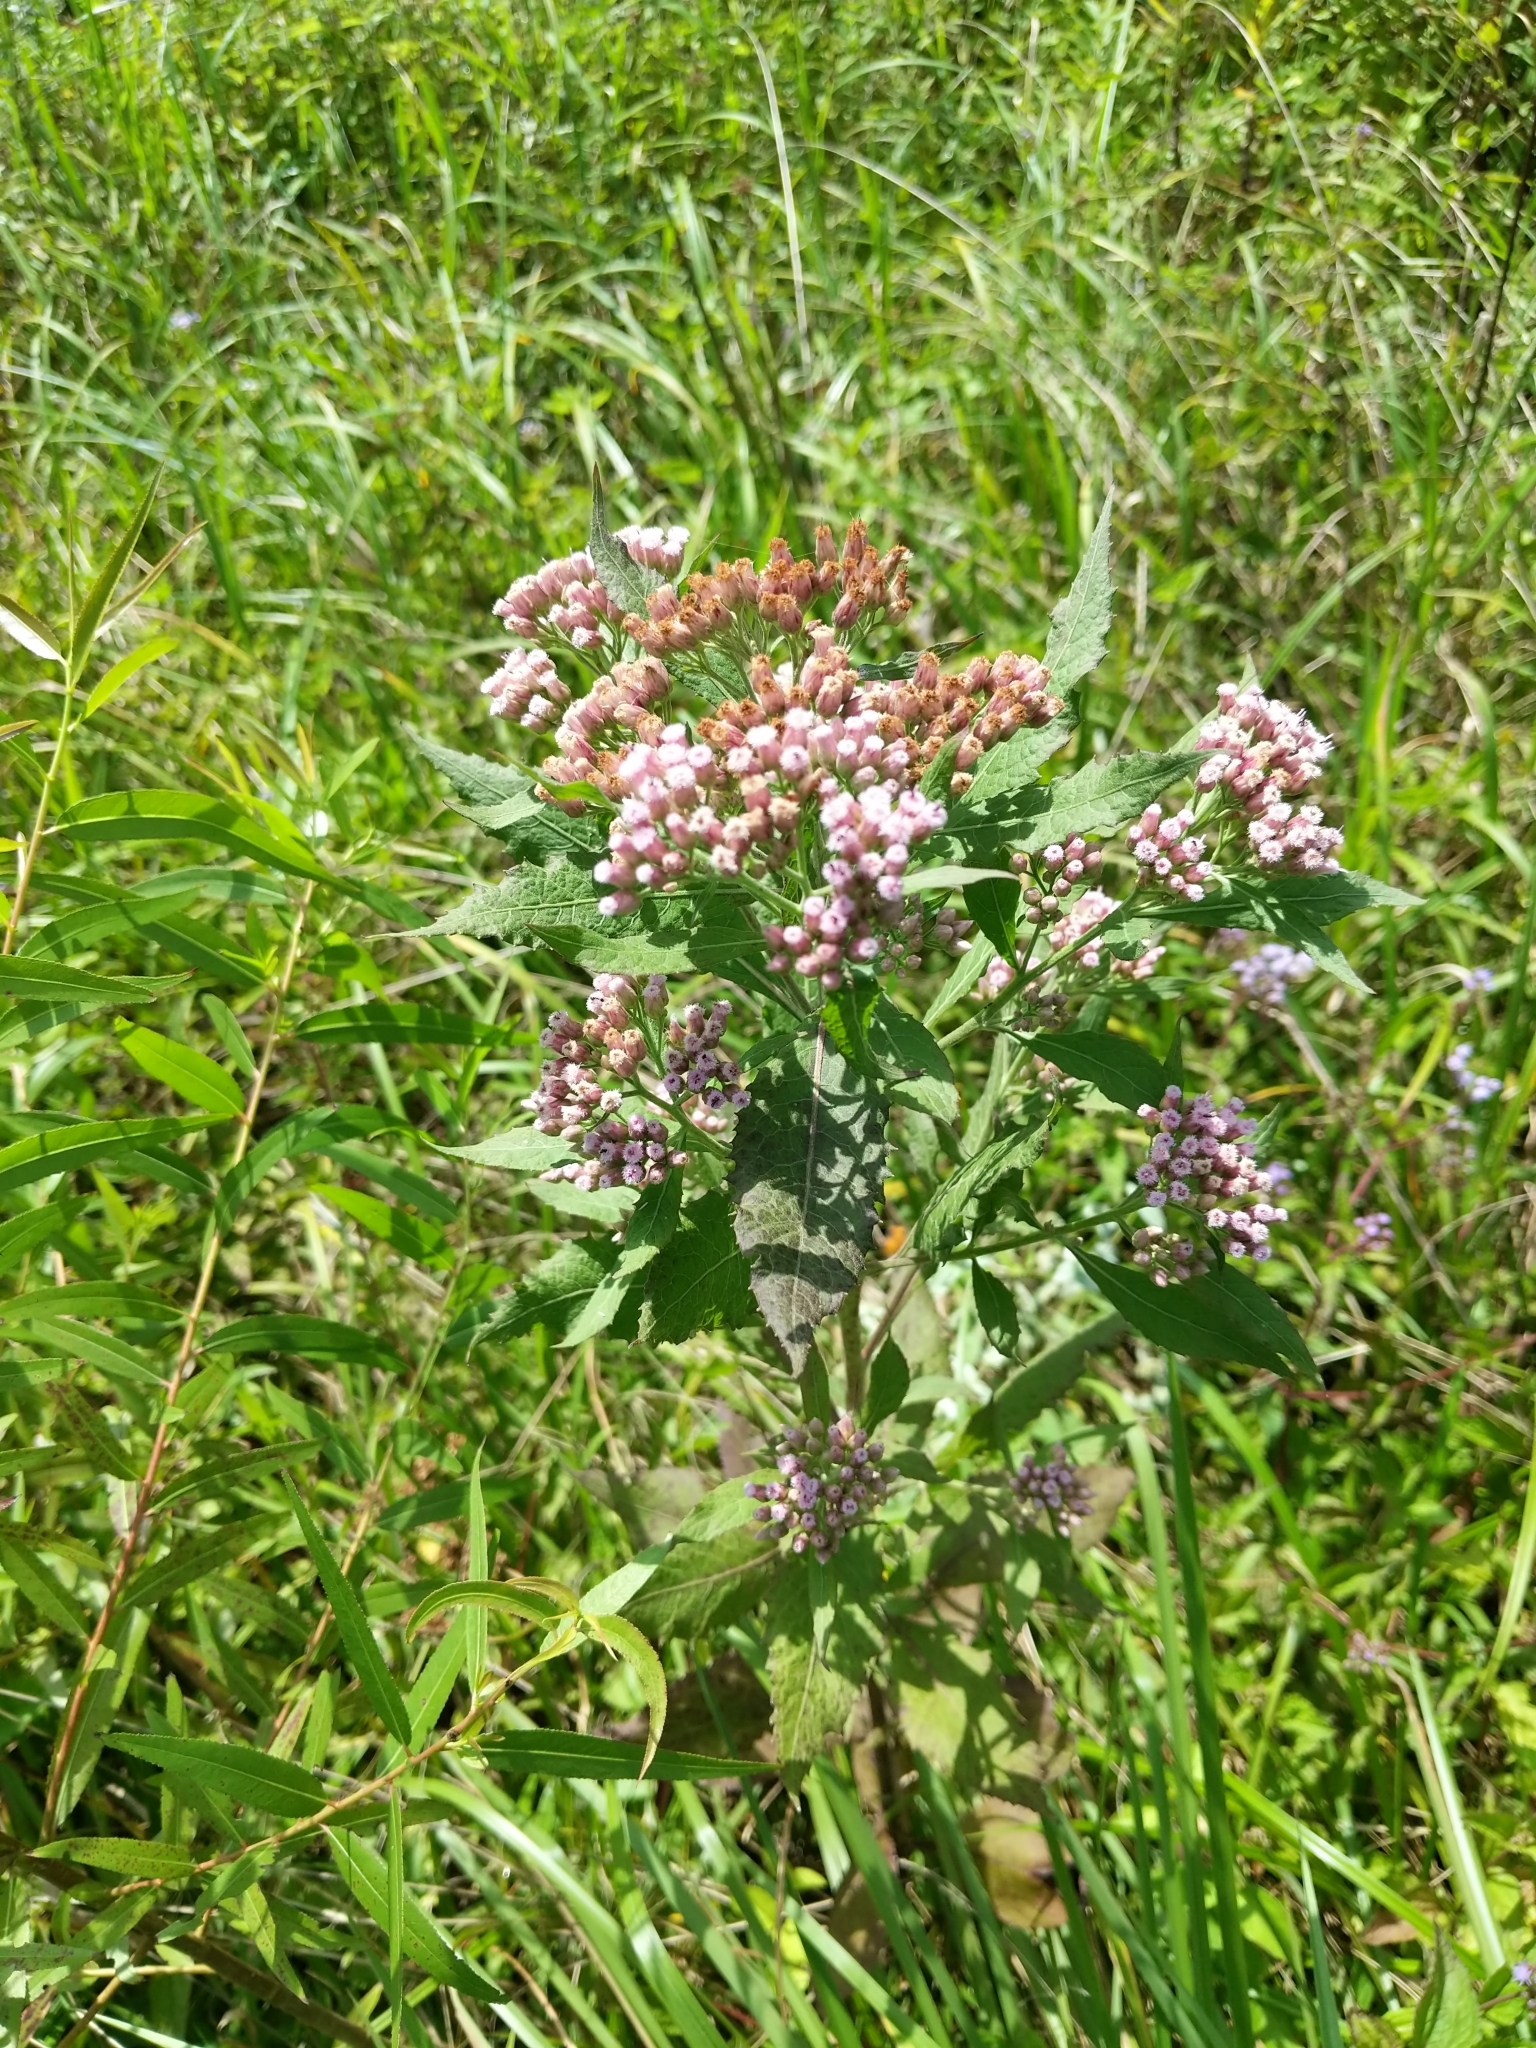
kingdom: Plantae
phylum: Tracheophyta
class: Magnoliopsida
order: Asterales
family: Asteraceae
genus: Pluchea
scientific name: Pluchea camphorata
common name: Camphor pluchea
